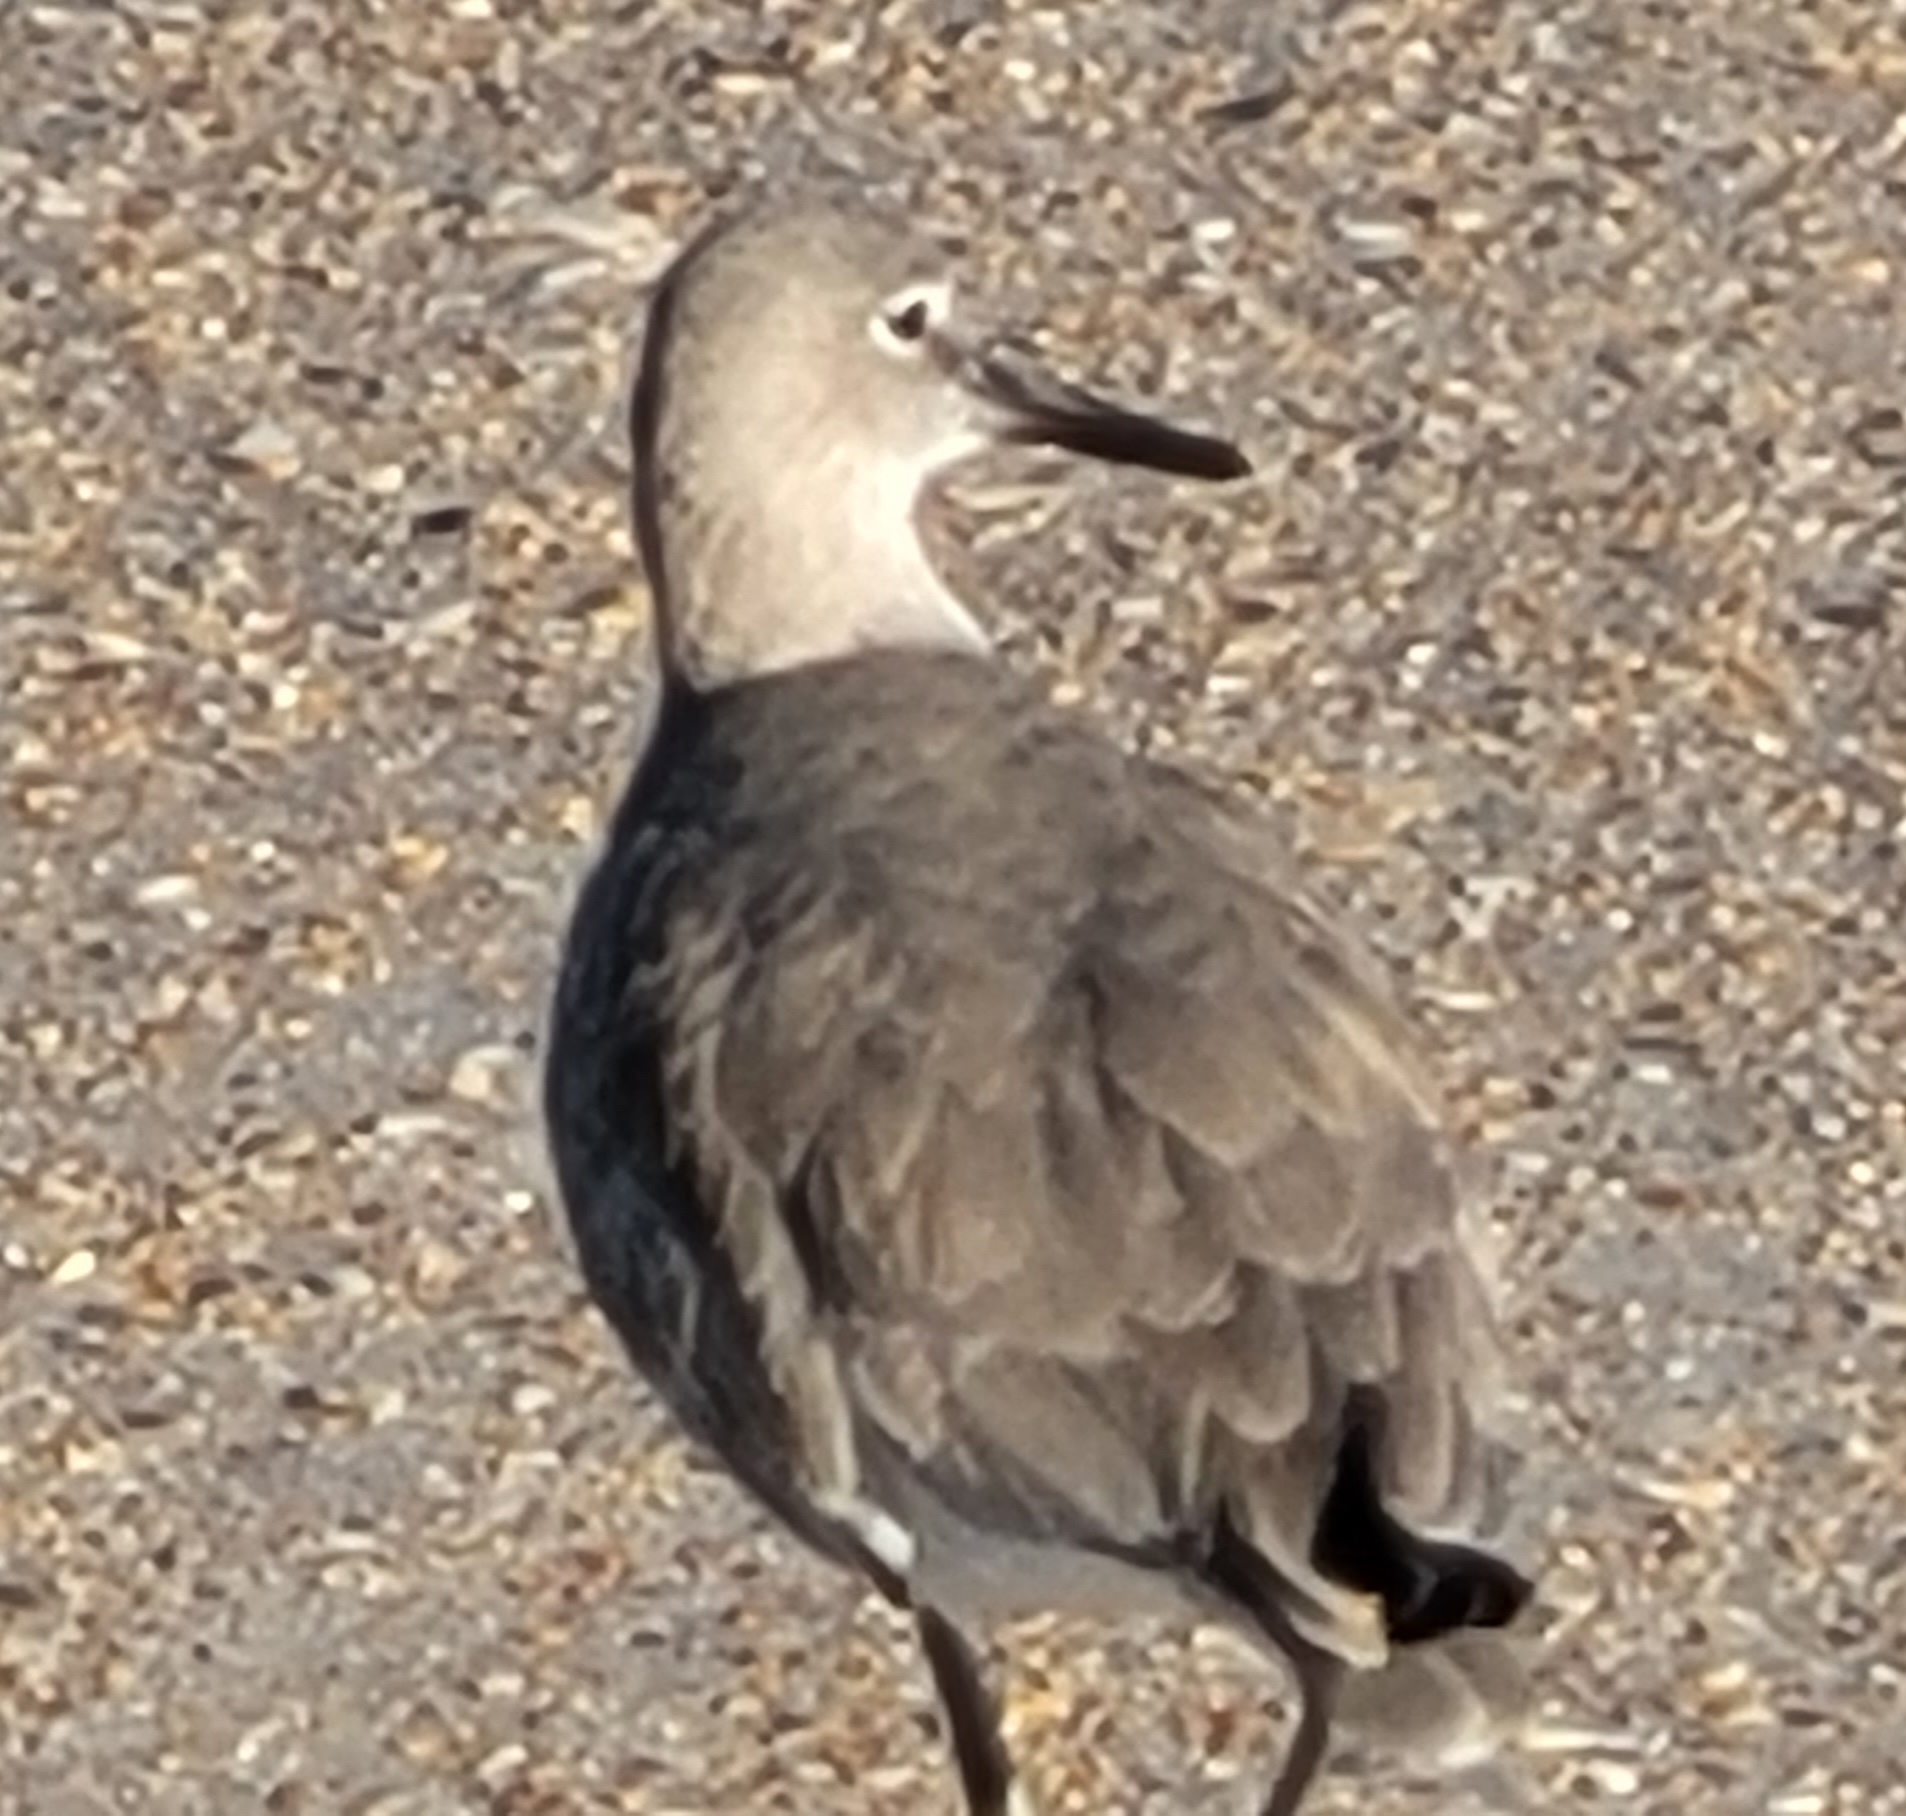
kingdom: Animalia
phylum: Chordata
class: Aves
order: Charadriiformes
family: Scolopacidae
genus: Tringa
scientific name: Tringa semipalmata
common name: Willet
